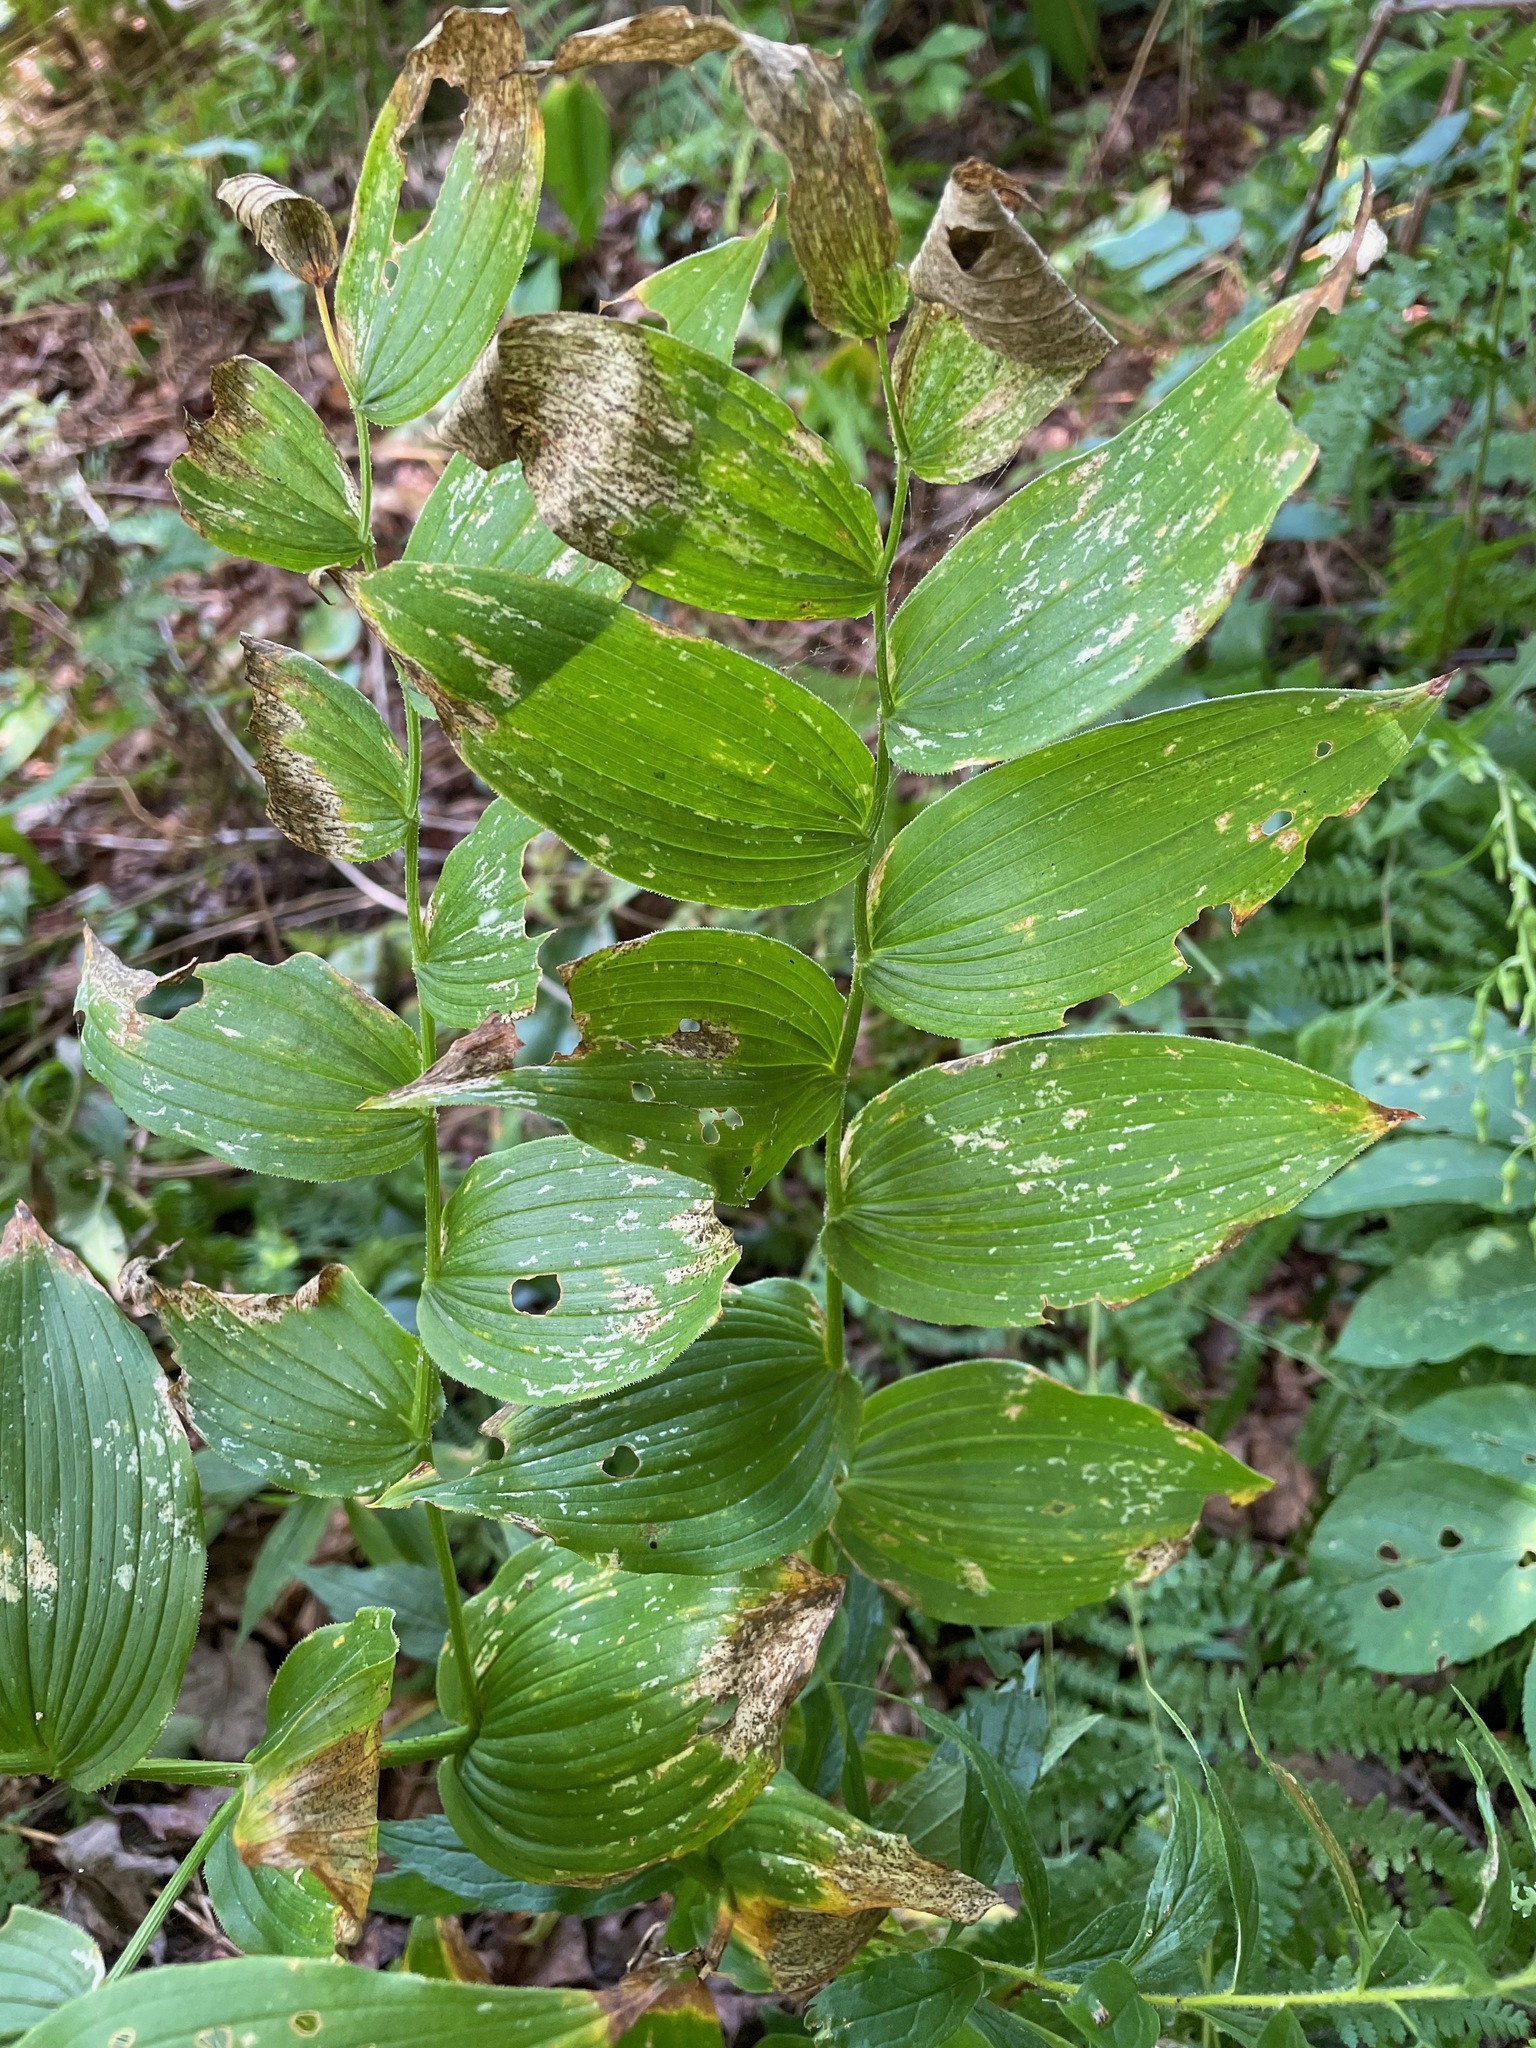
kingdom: Plantae
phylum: Tracheophyta
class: Liliopsida
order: Liliales
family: Liliaceae
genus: Streptopus
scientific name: Streptopus lanceolatus
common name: Rose mandarin
